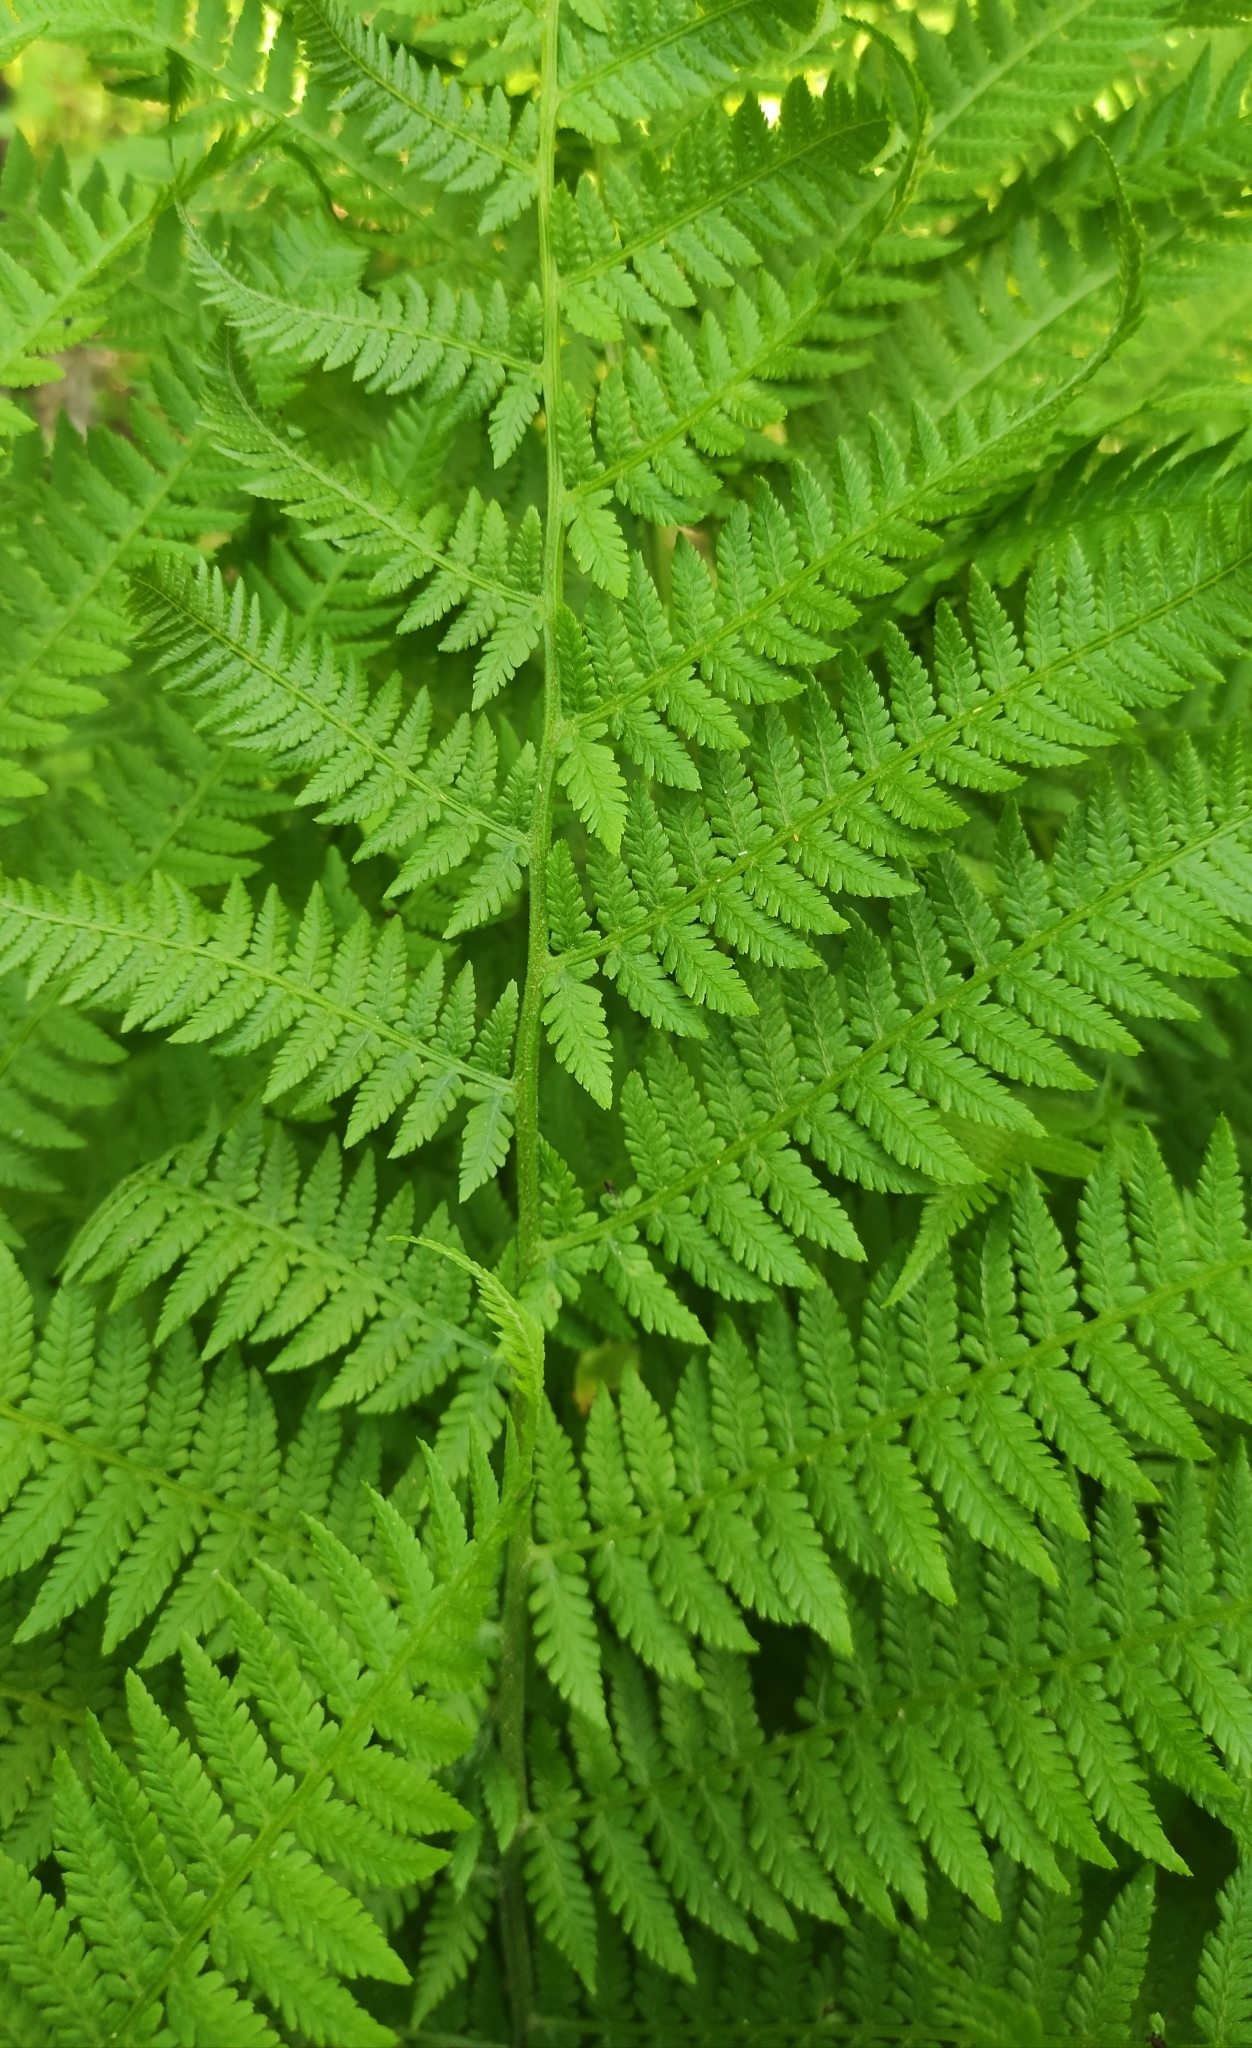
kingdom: Plantae
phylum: Tracheophyta
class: Polypodiopsida
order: Polypodiales
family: Athyriaceae
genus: Athyrium
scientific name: Athyrium filix-femina
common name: Lady fern
